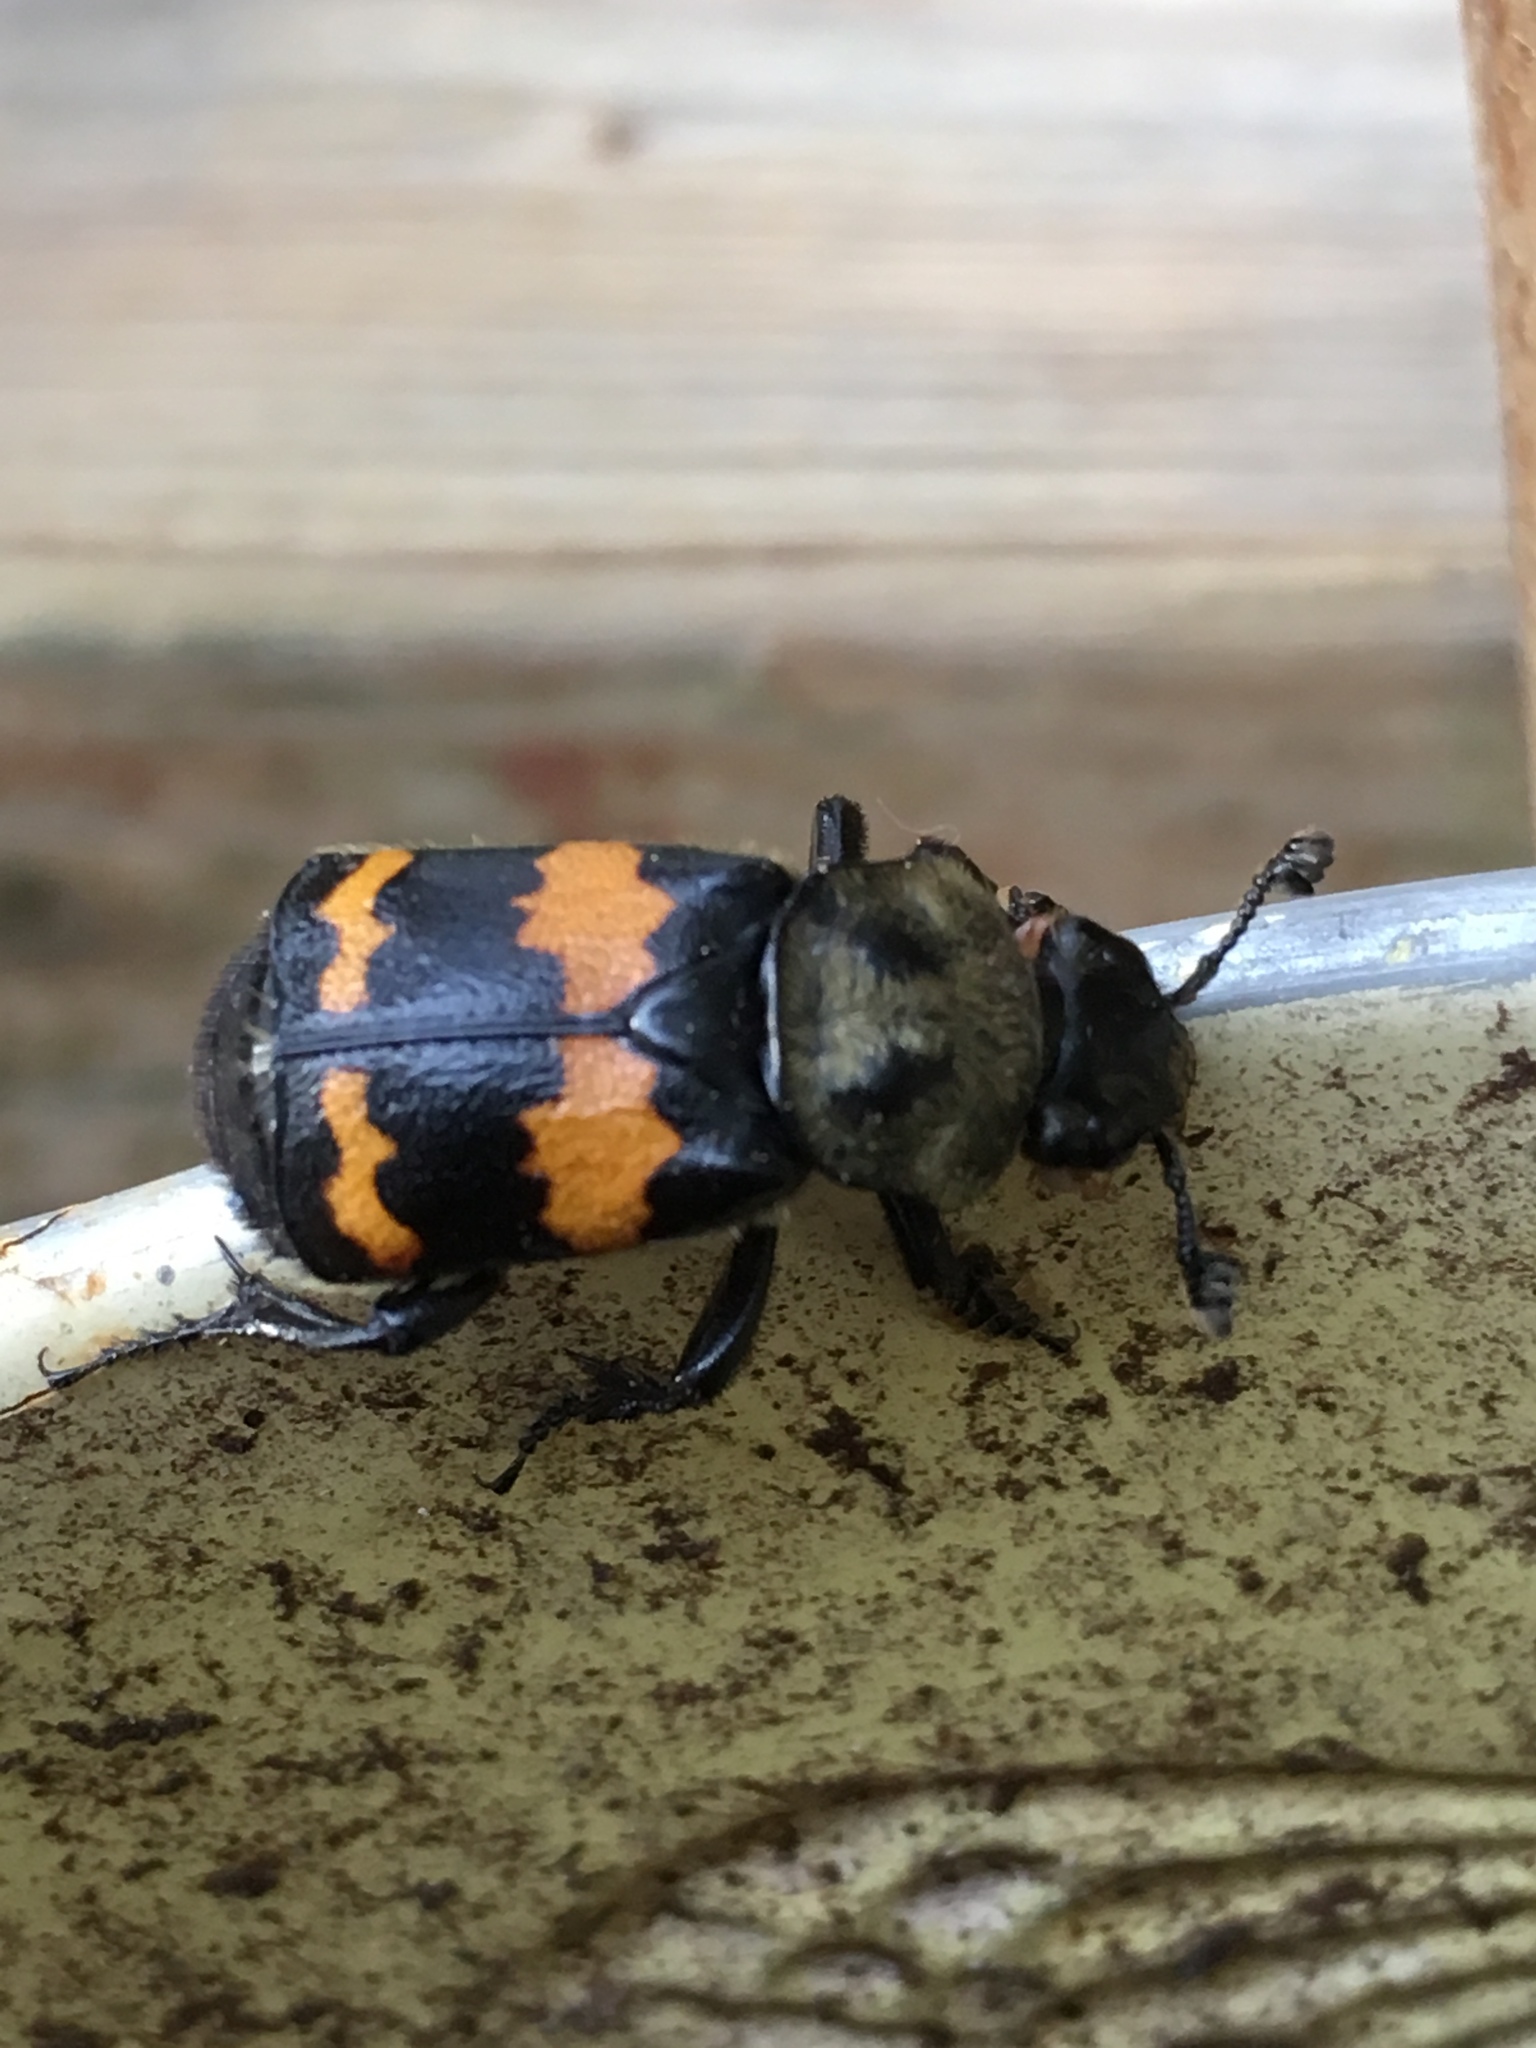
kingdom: Animalia
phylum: Arthropoda
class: Insecta
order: Coleoptera
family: Staphylinidae
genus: Nicrophorus
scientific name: Nicrophorus tomentosus
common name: Tomentose burying beetle
